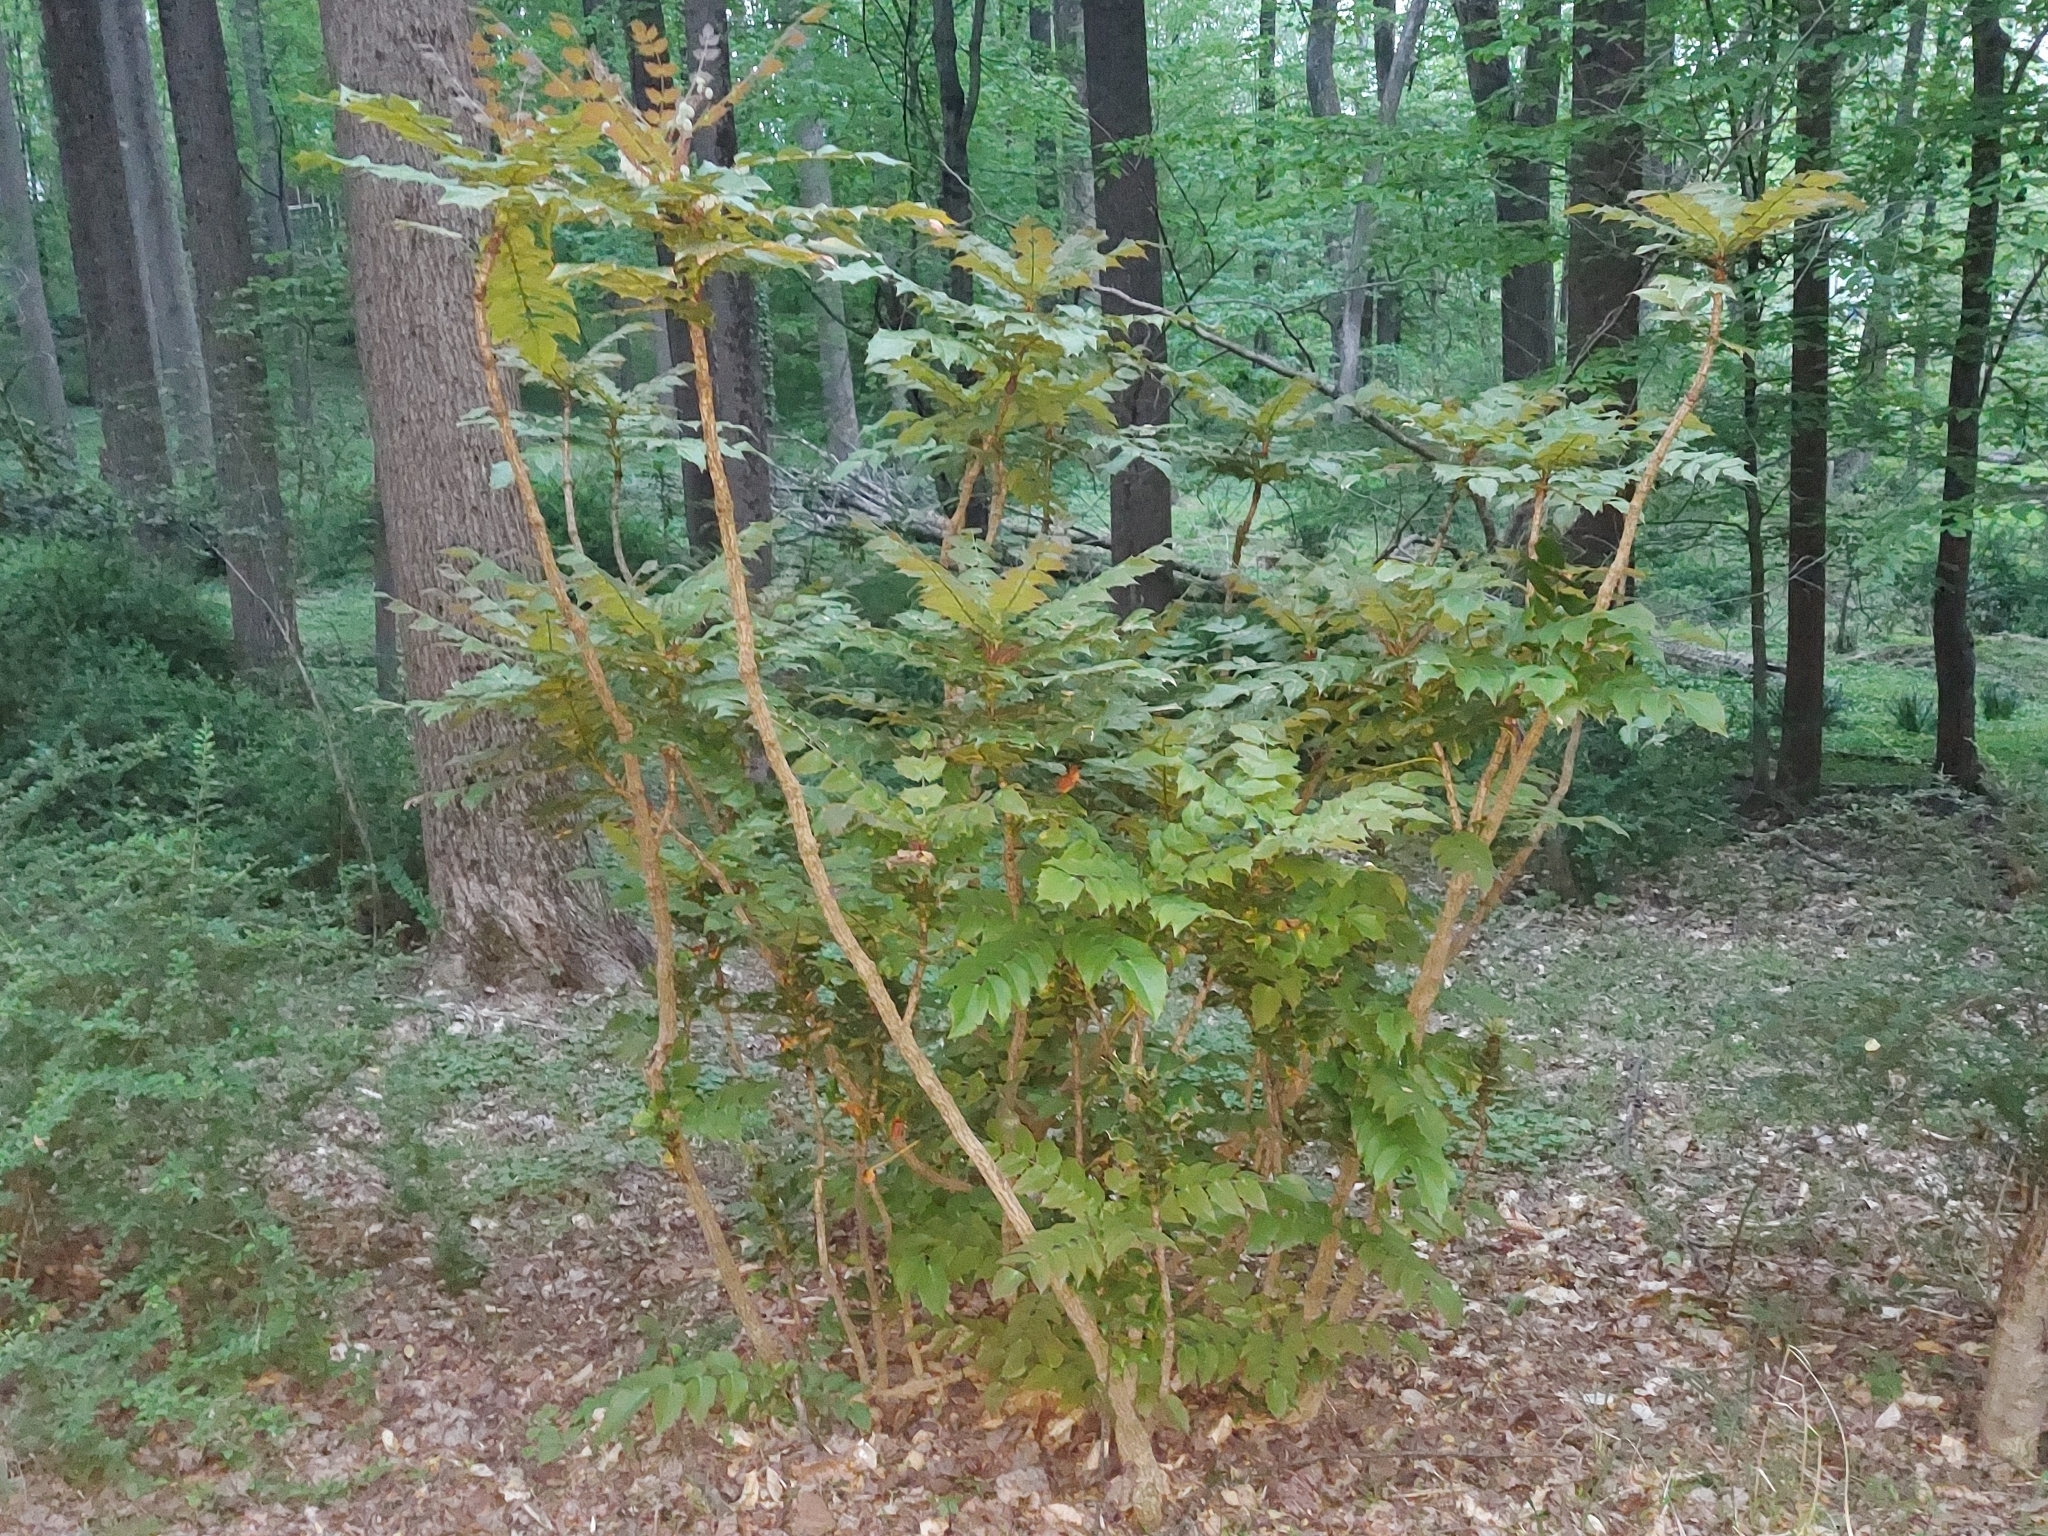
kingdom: Plantae
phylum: Tracheophyta
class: Magnoliopsida
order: Ranunculales
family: Berberidaceae
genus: Mahonia
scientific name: Mahonia bealei
